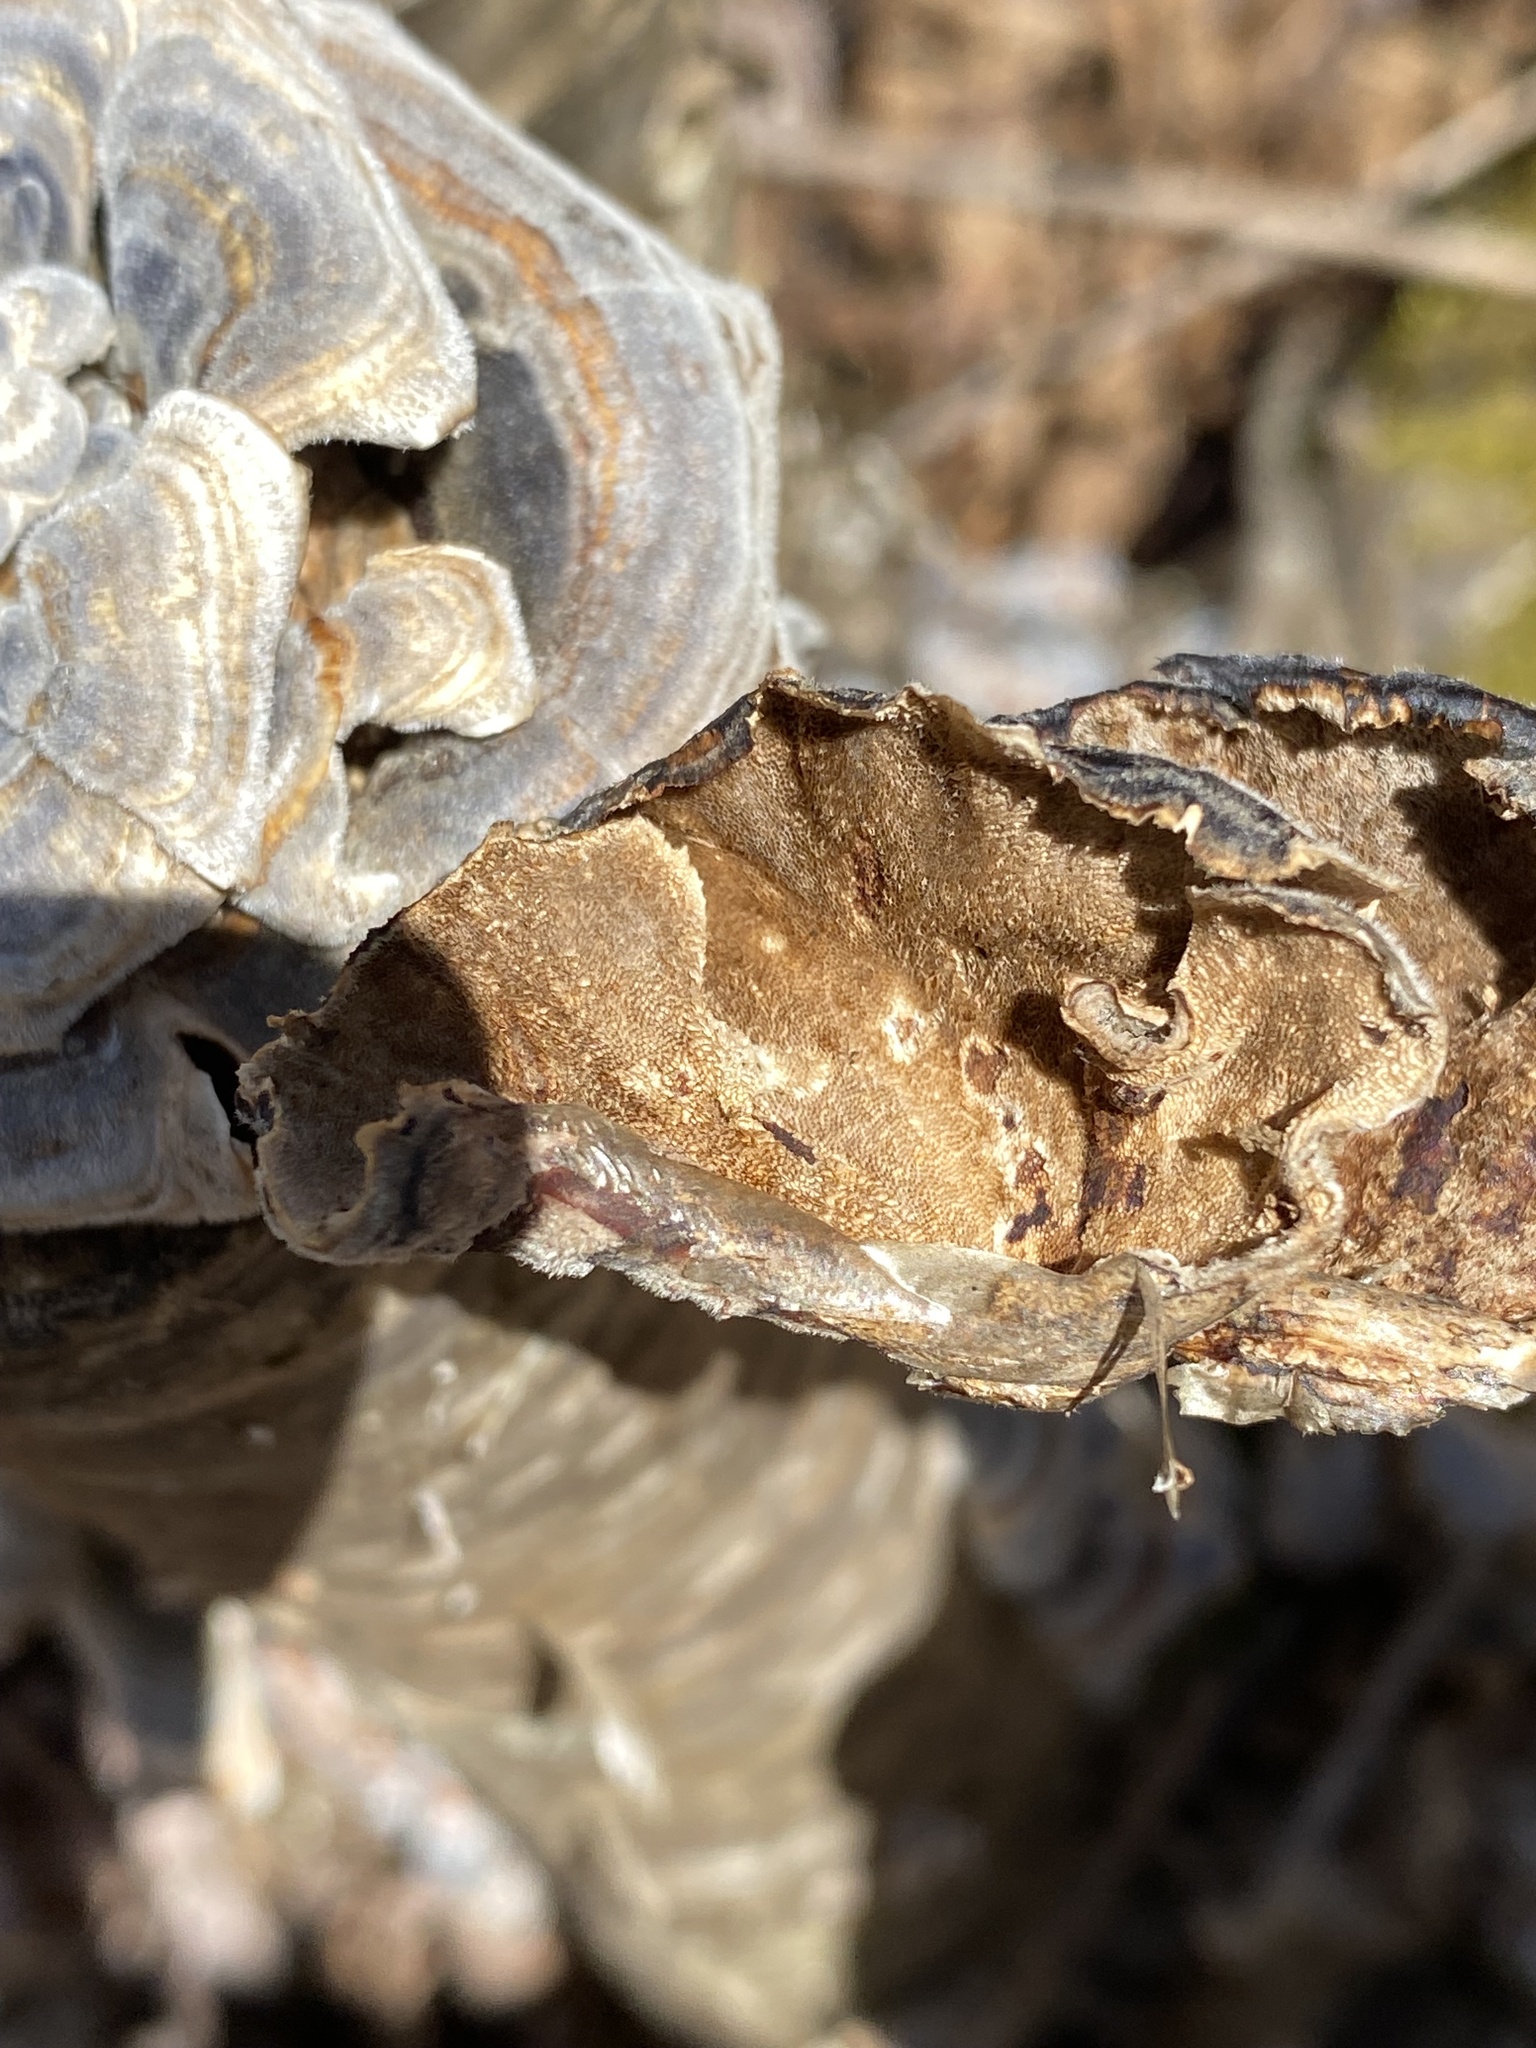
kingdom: Fungi
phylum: Basidiomycota
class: Agaricomycetes
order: Polyporales
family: Polyporaceae
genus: Trametes
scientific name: Trametes versicolor
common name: Turkeytail
